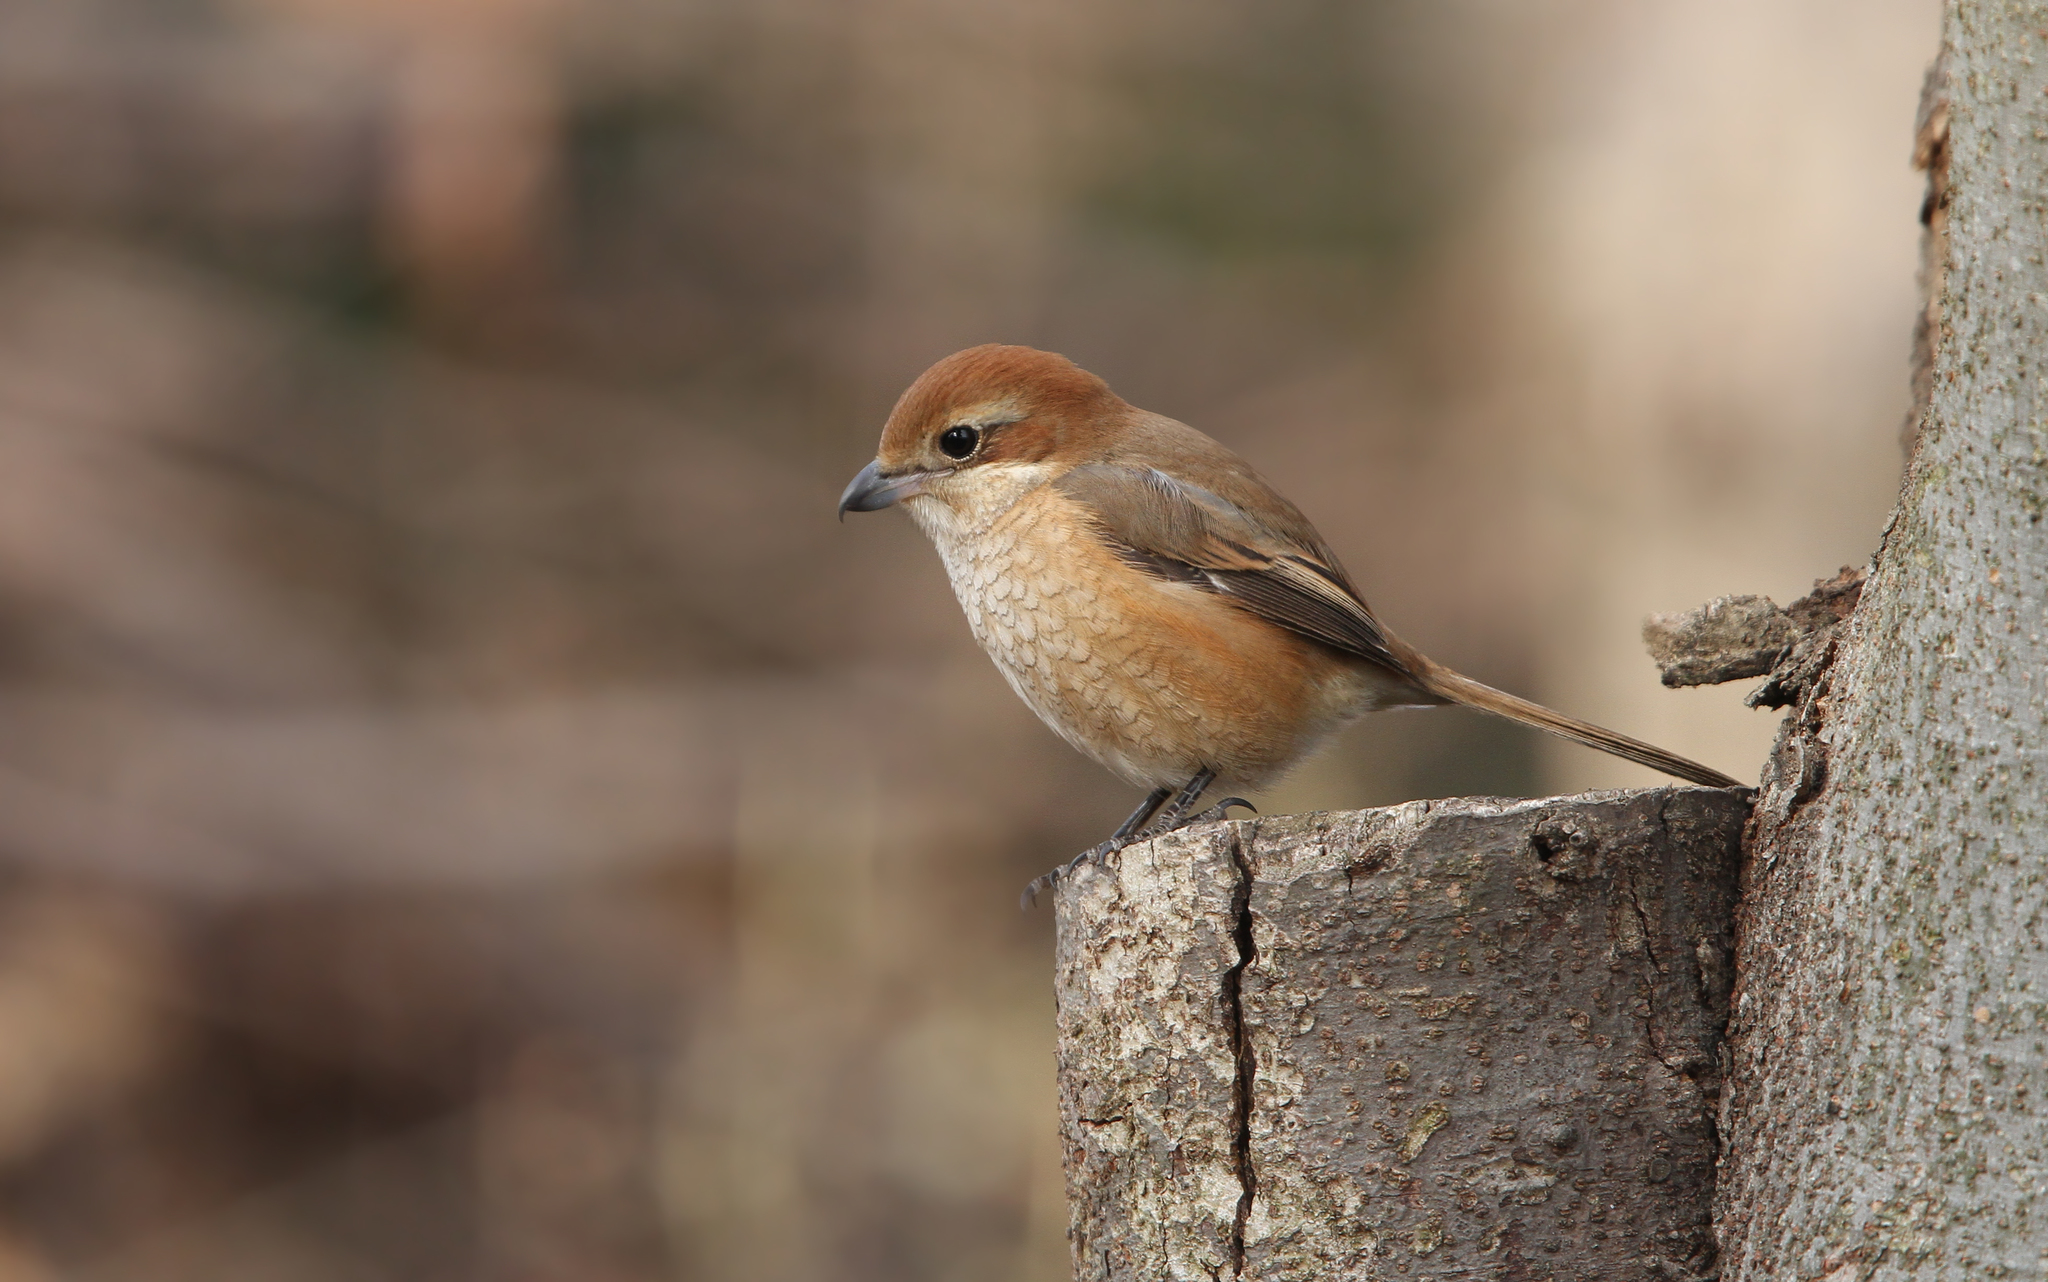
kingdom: Animalia
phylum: Chordata
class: Aves
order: Passeriformes
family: Laniidae
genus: Lanius
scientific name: Lanius bucephalus
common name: Bull-headed shrike
